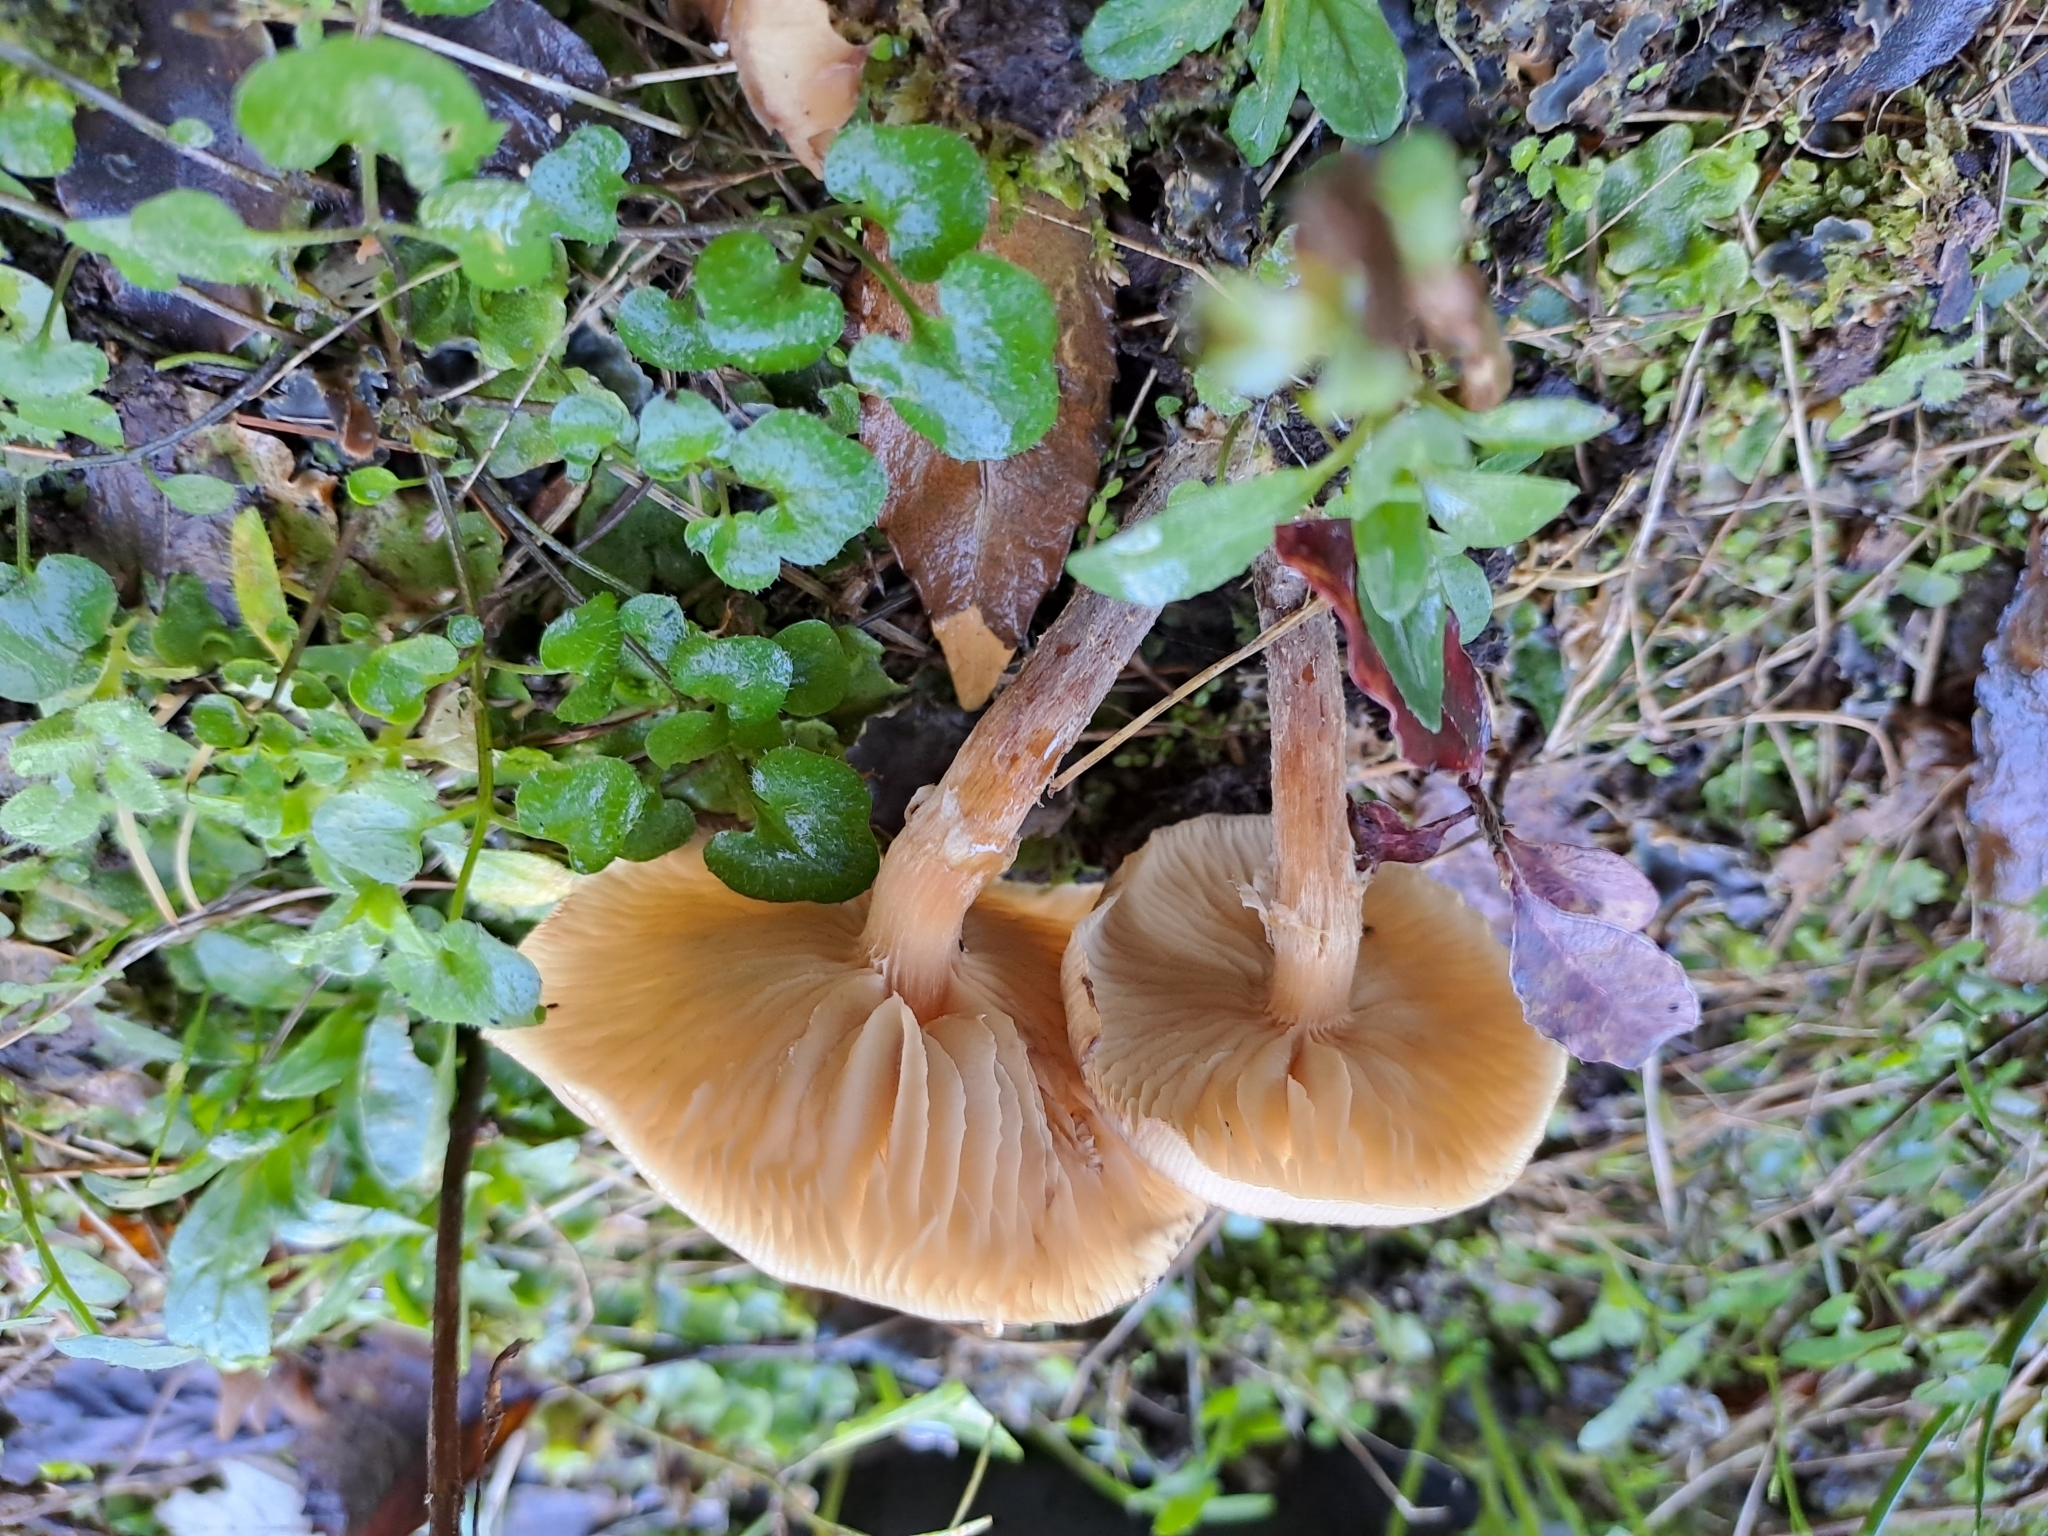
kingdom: Fungi
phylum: Basidiomycota
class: Agaricomycetes
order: Agaricales
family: Physalacriaceae
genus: Armillaria
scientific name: Armillaria novae-zelandiae
